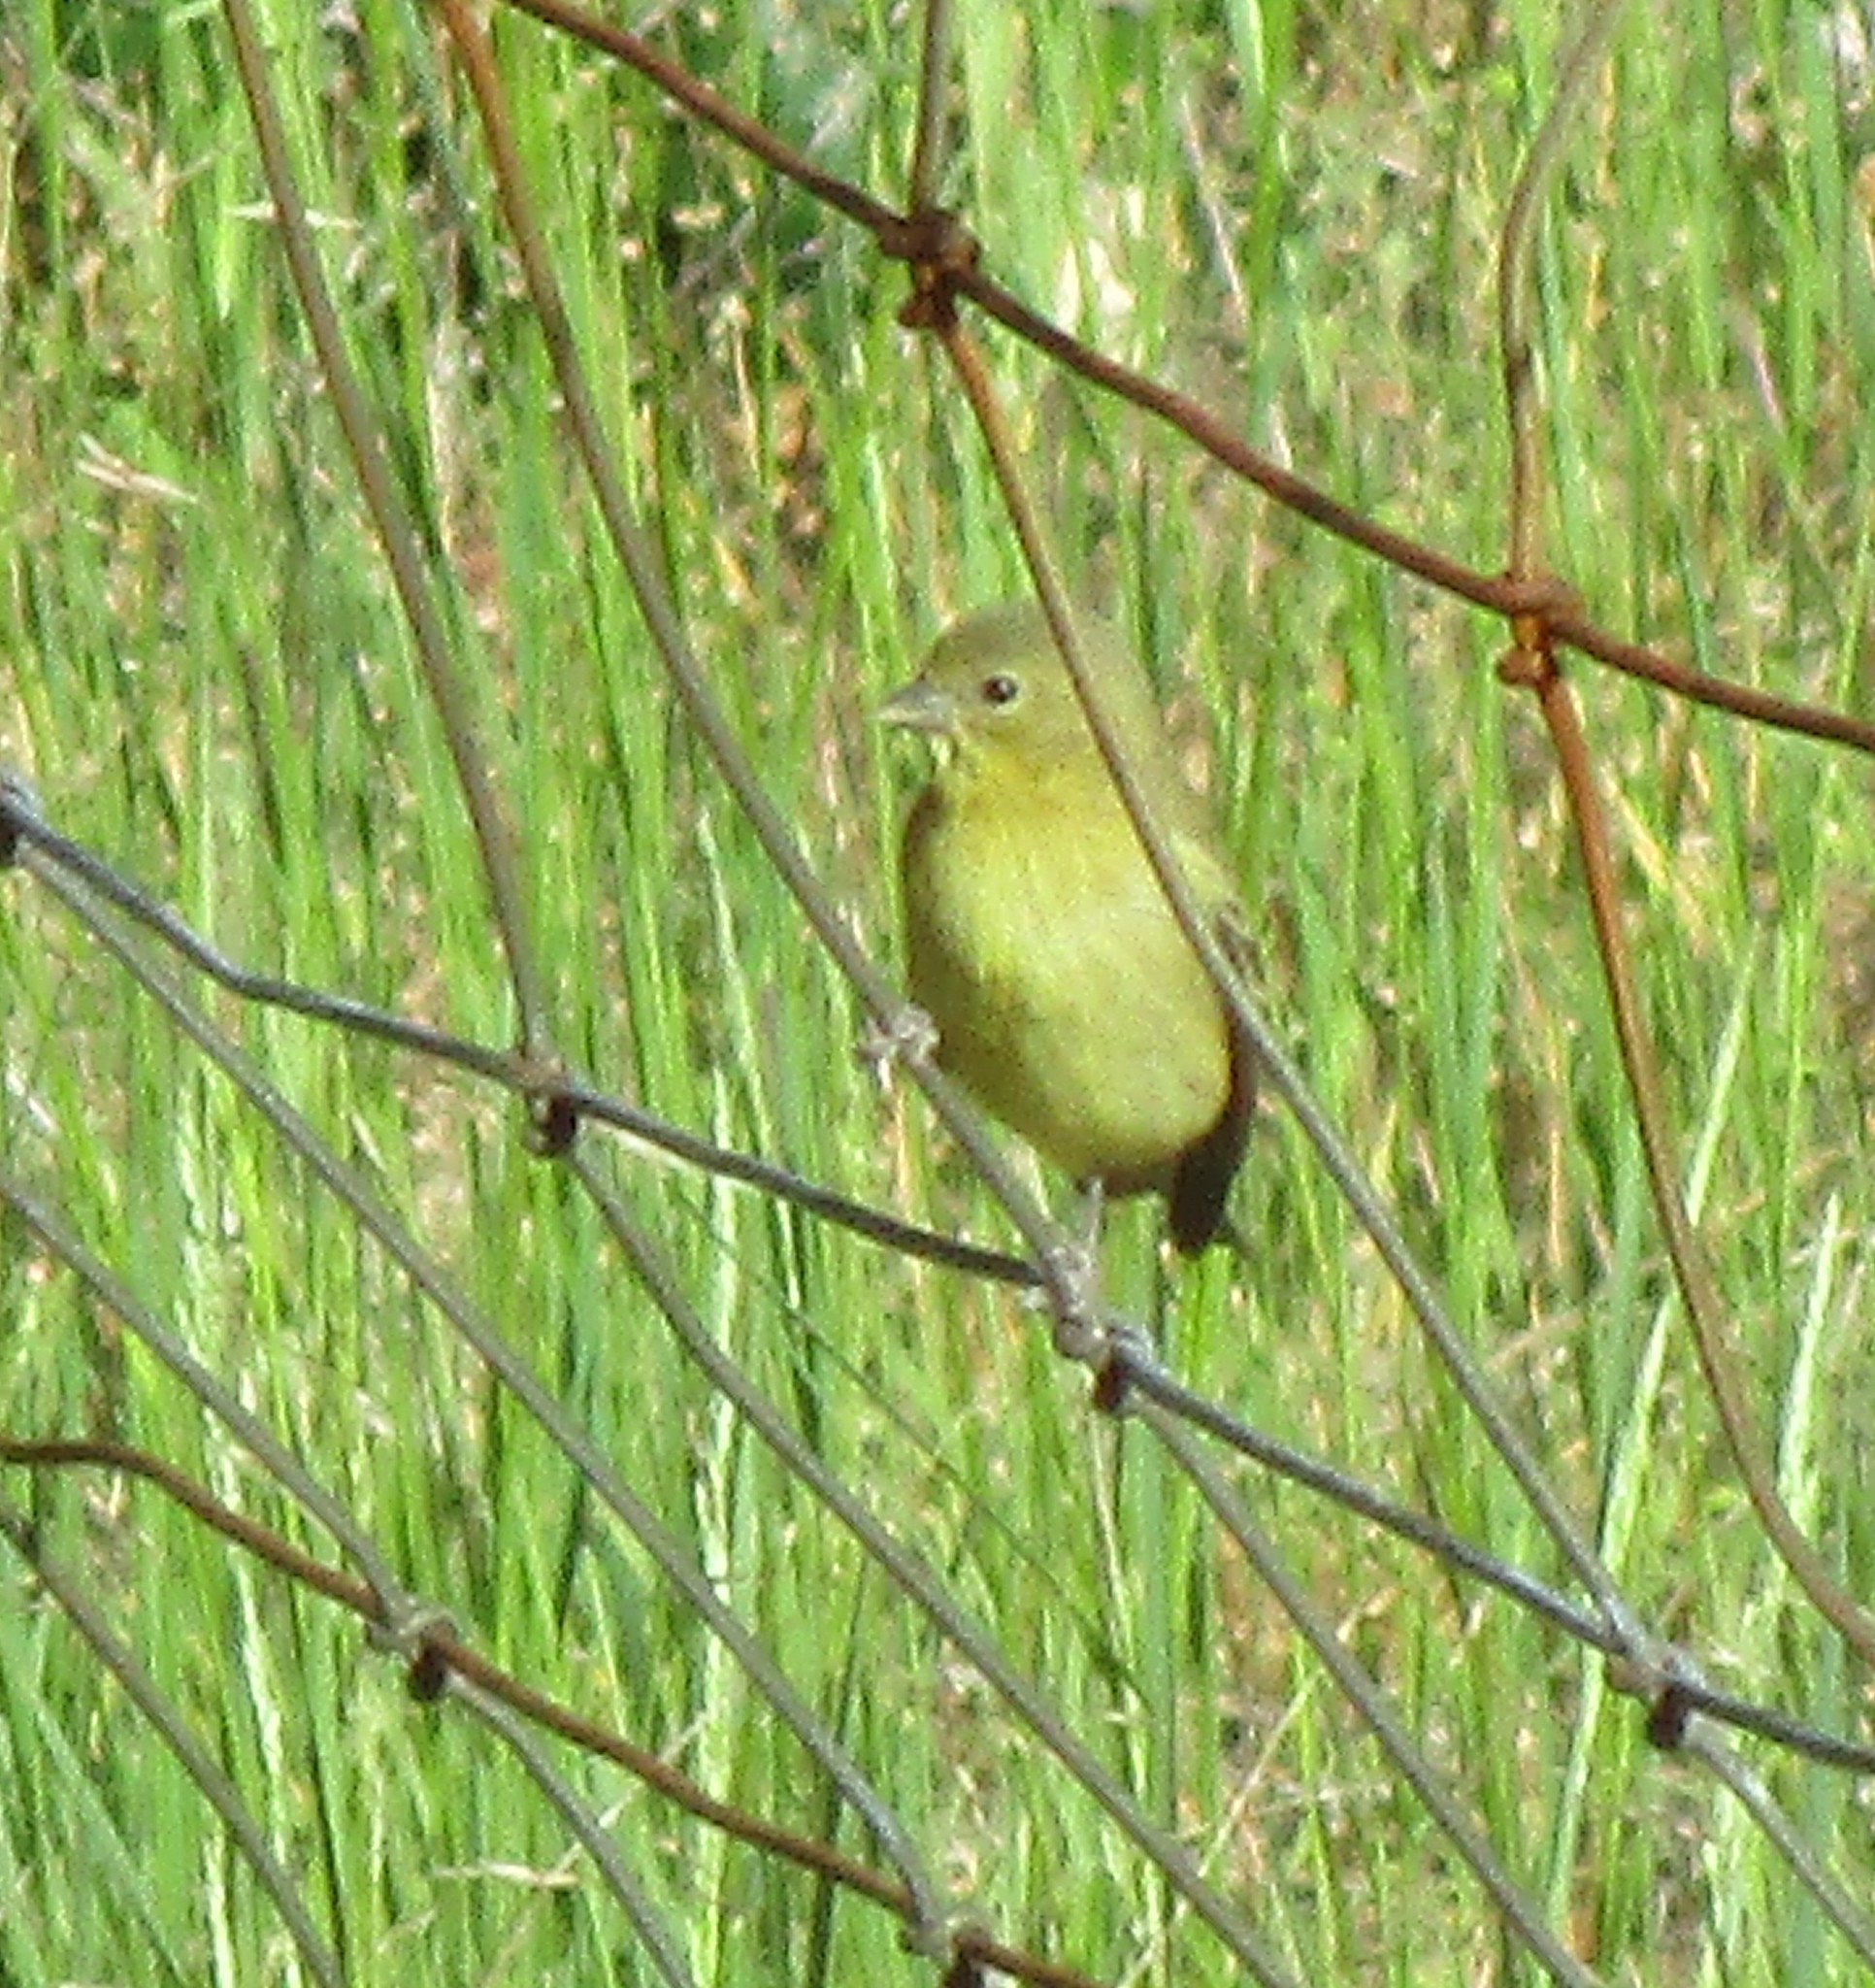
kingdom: Animalia
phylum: Chordata
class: Aves
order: Passeriformes
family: Fringillidae
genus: Spinus
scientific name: Spinus psaltria
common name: Lesser goldfinch
